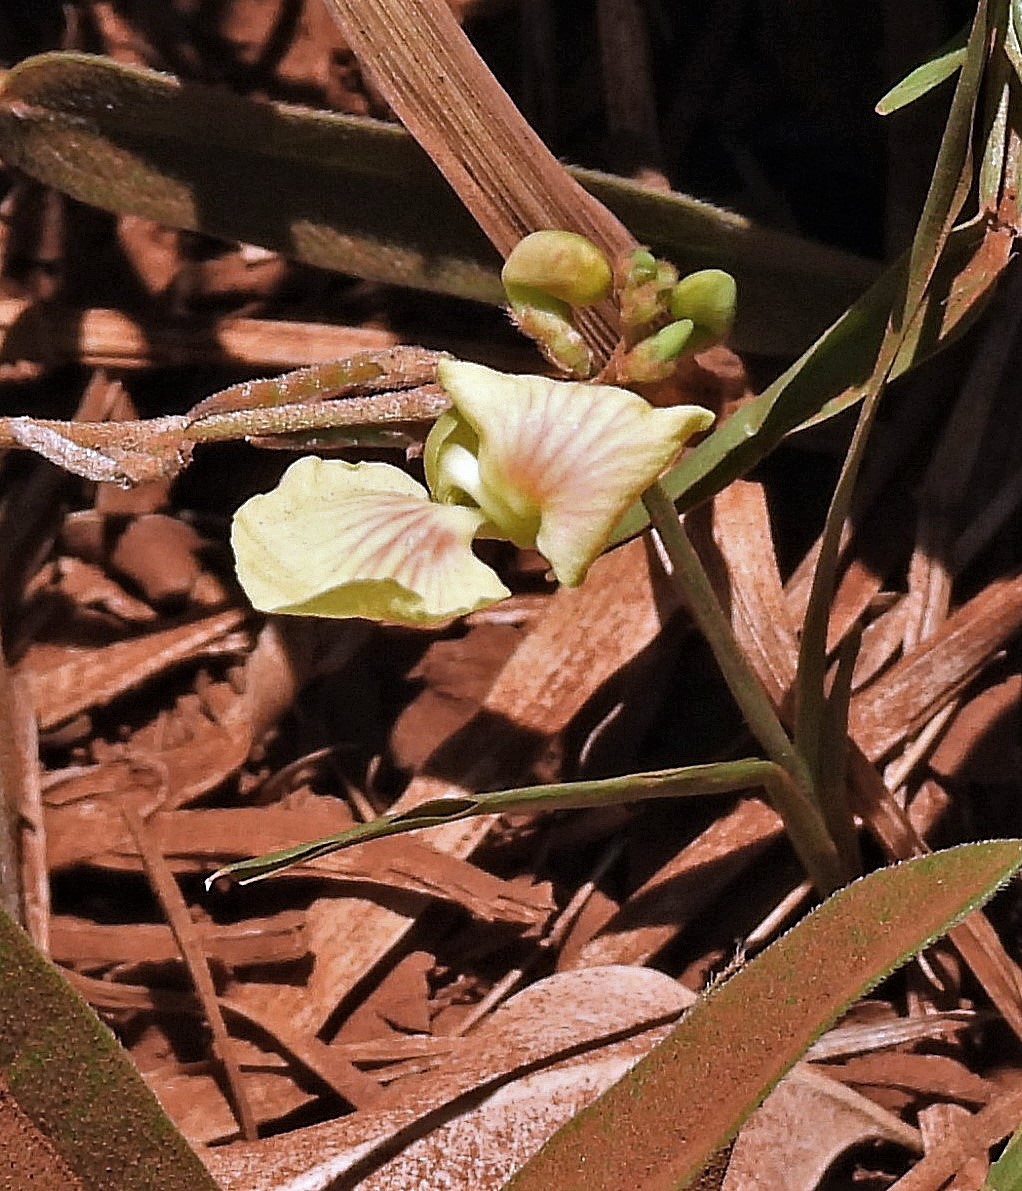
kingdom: Plantae
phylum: Tracheophyta
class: Magnoliopsida
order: Fabales
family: Fabaceae
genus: Macroptilium
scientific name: Macroptilium prostratum
